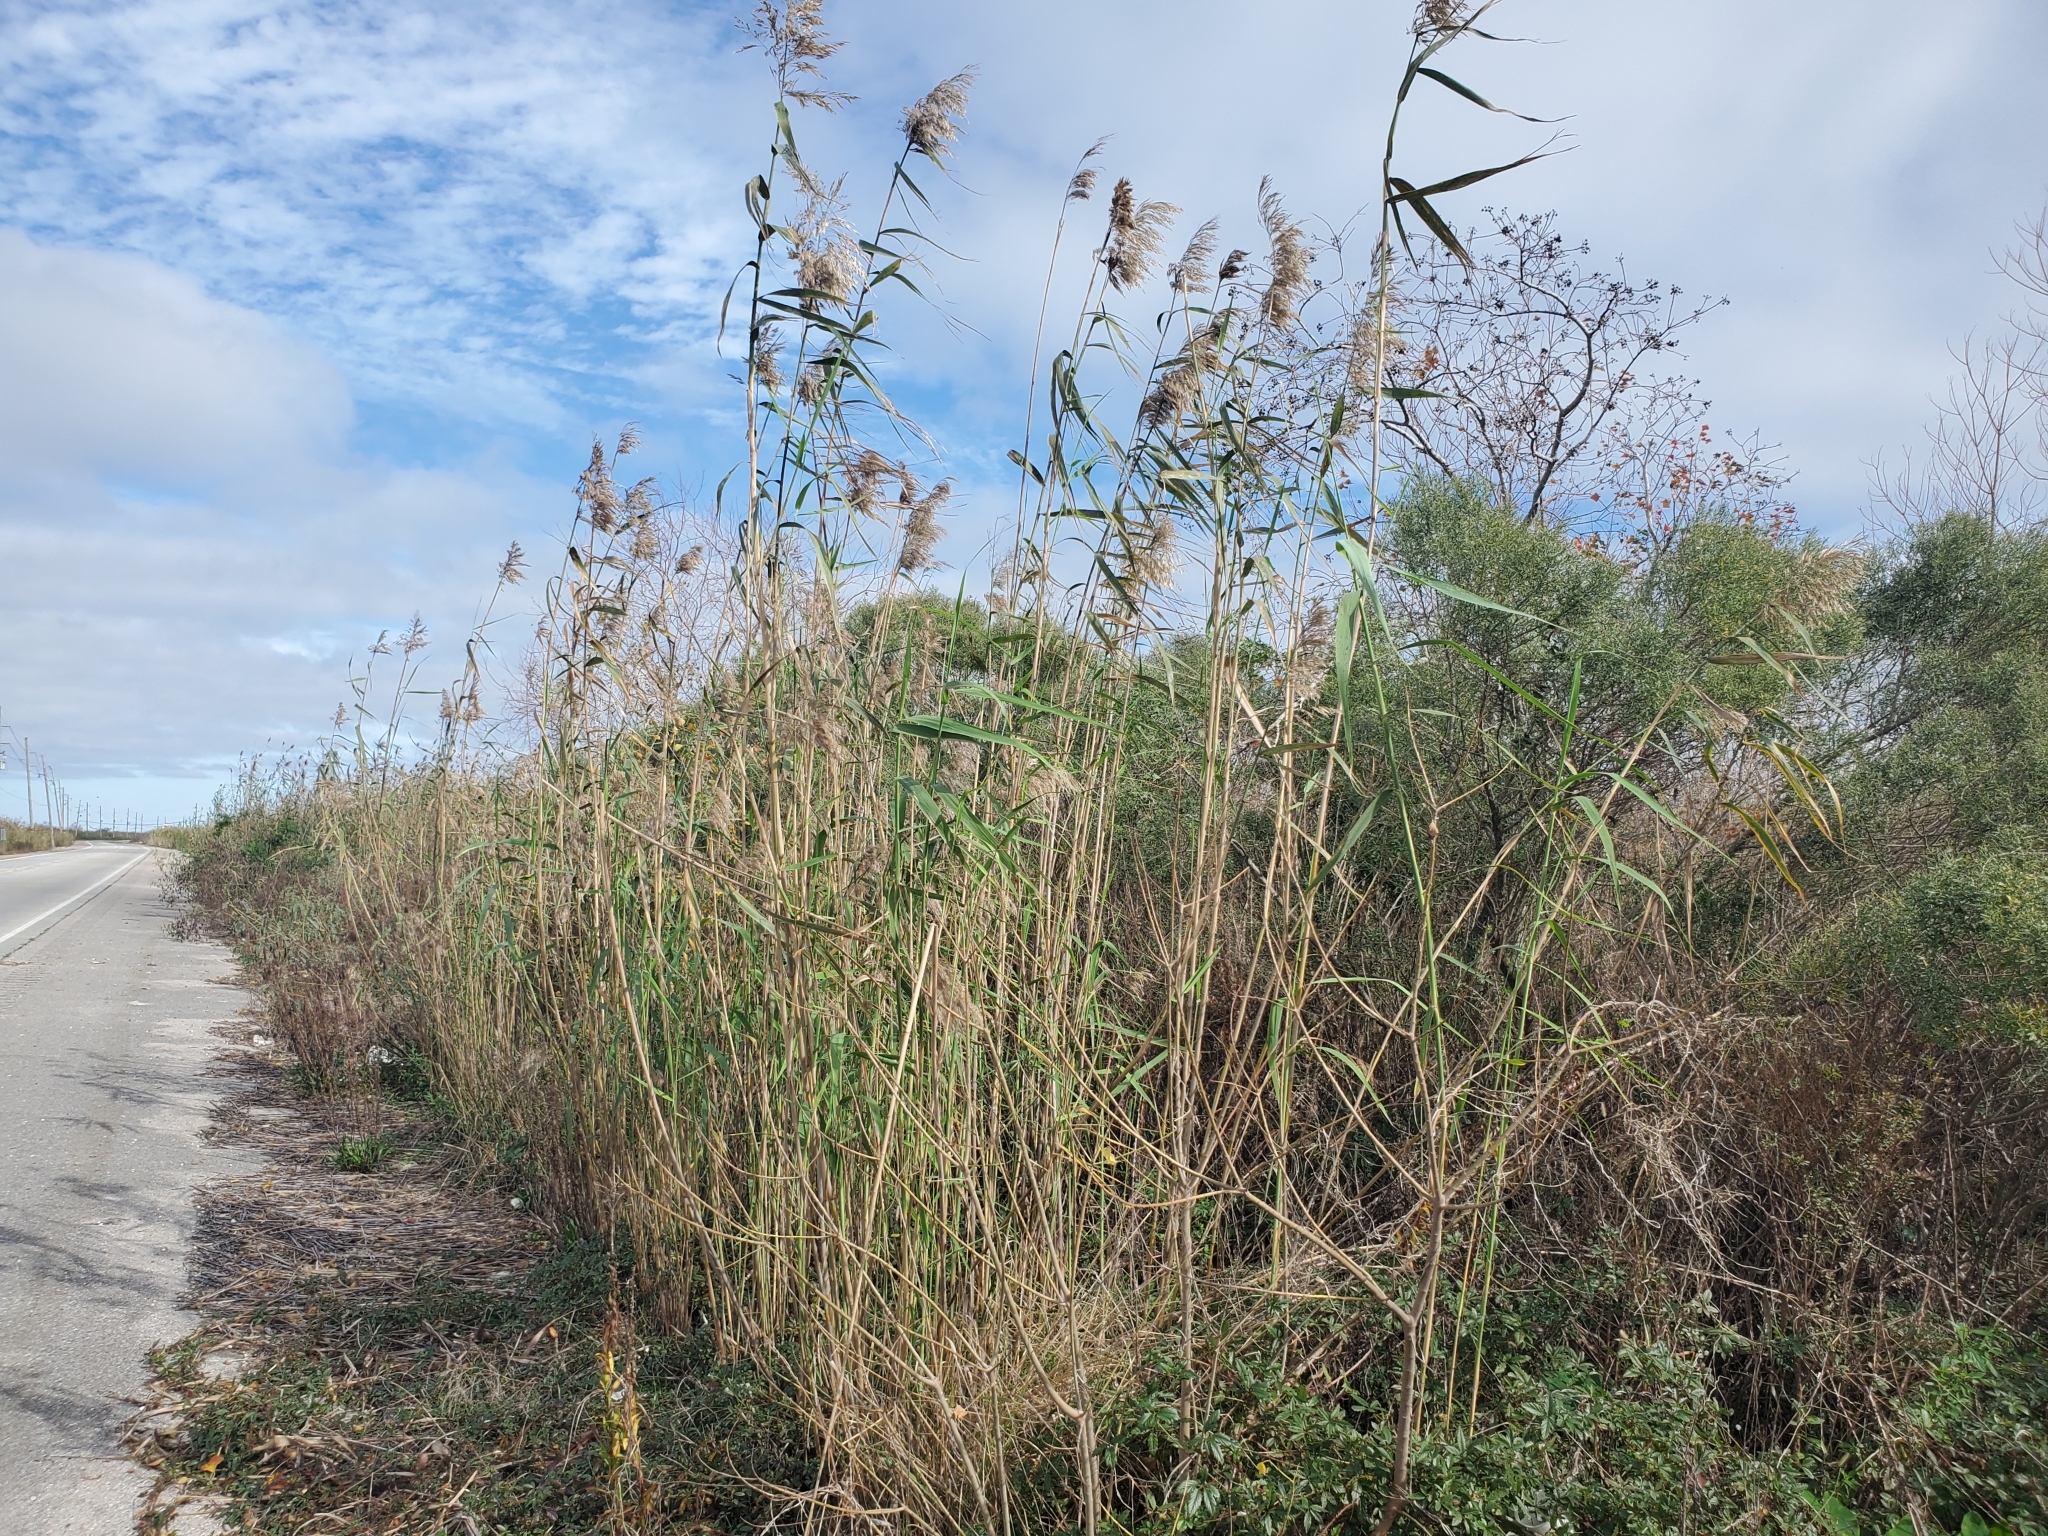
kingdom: Plantae
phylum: Tracheophyta
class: Liliopsida
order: Poales
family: Poaceae
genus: Phragmites
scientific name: Phragmites australis
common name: Common reed
